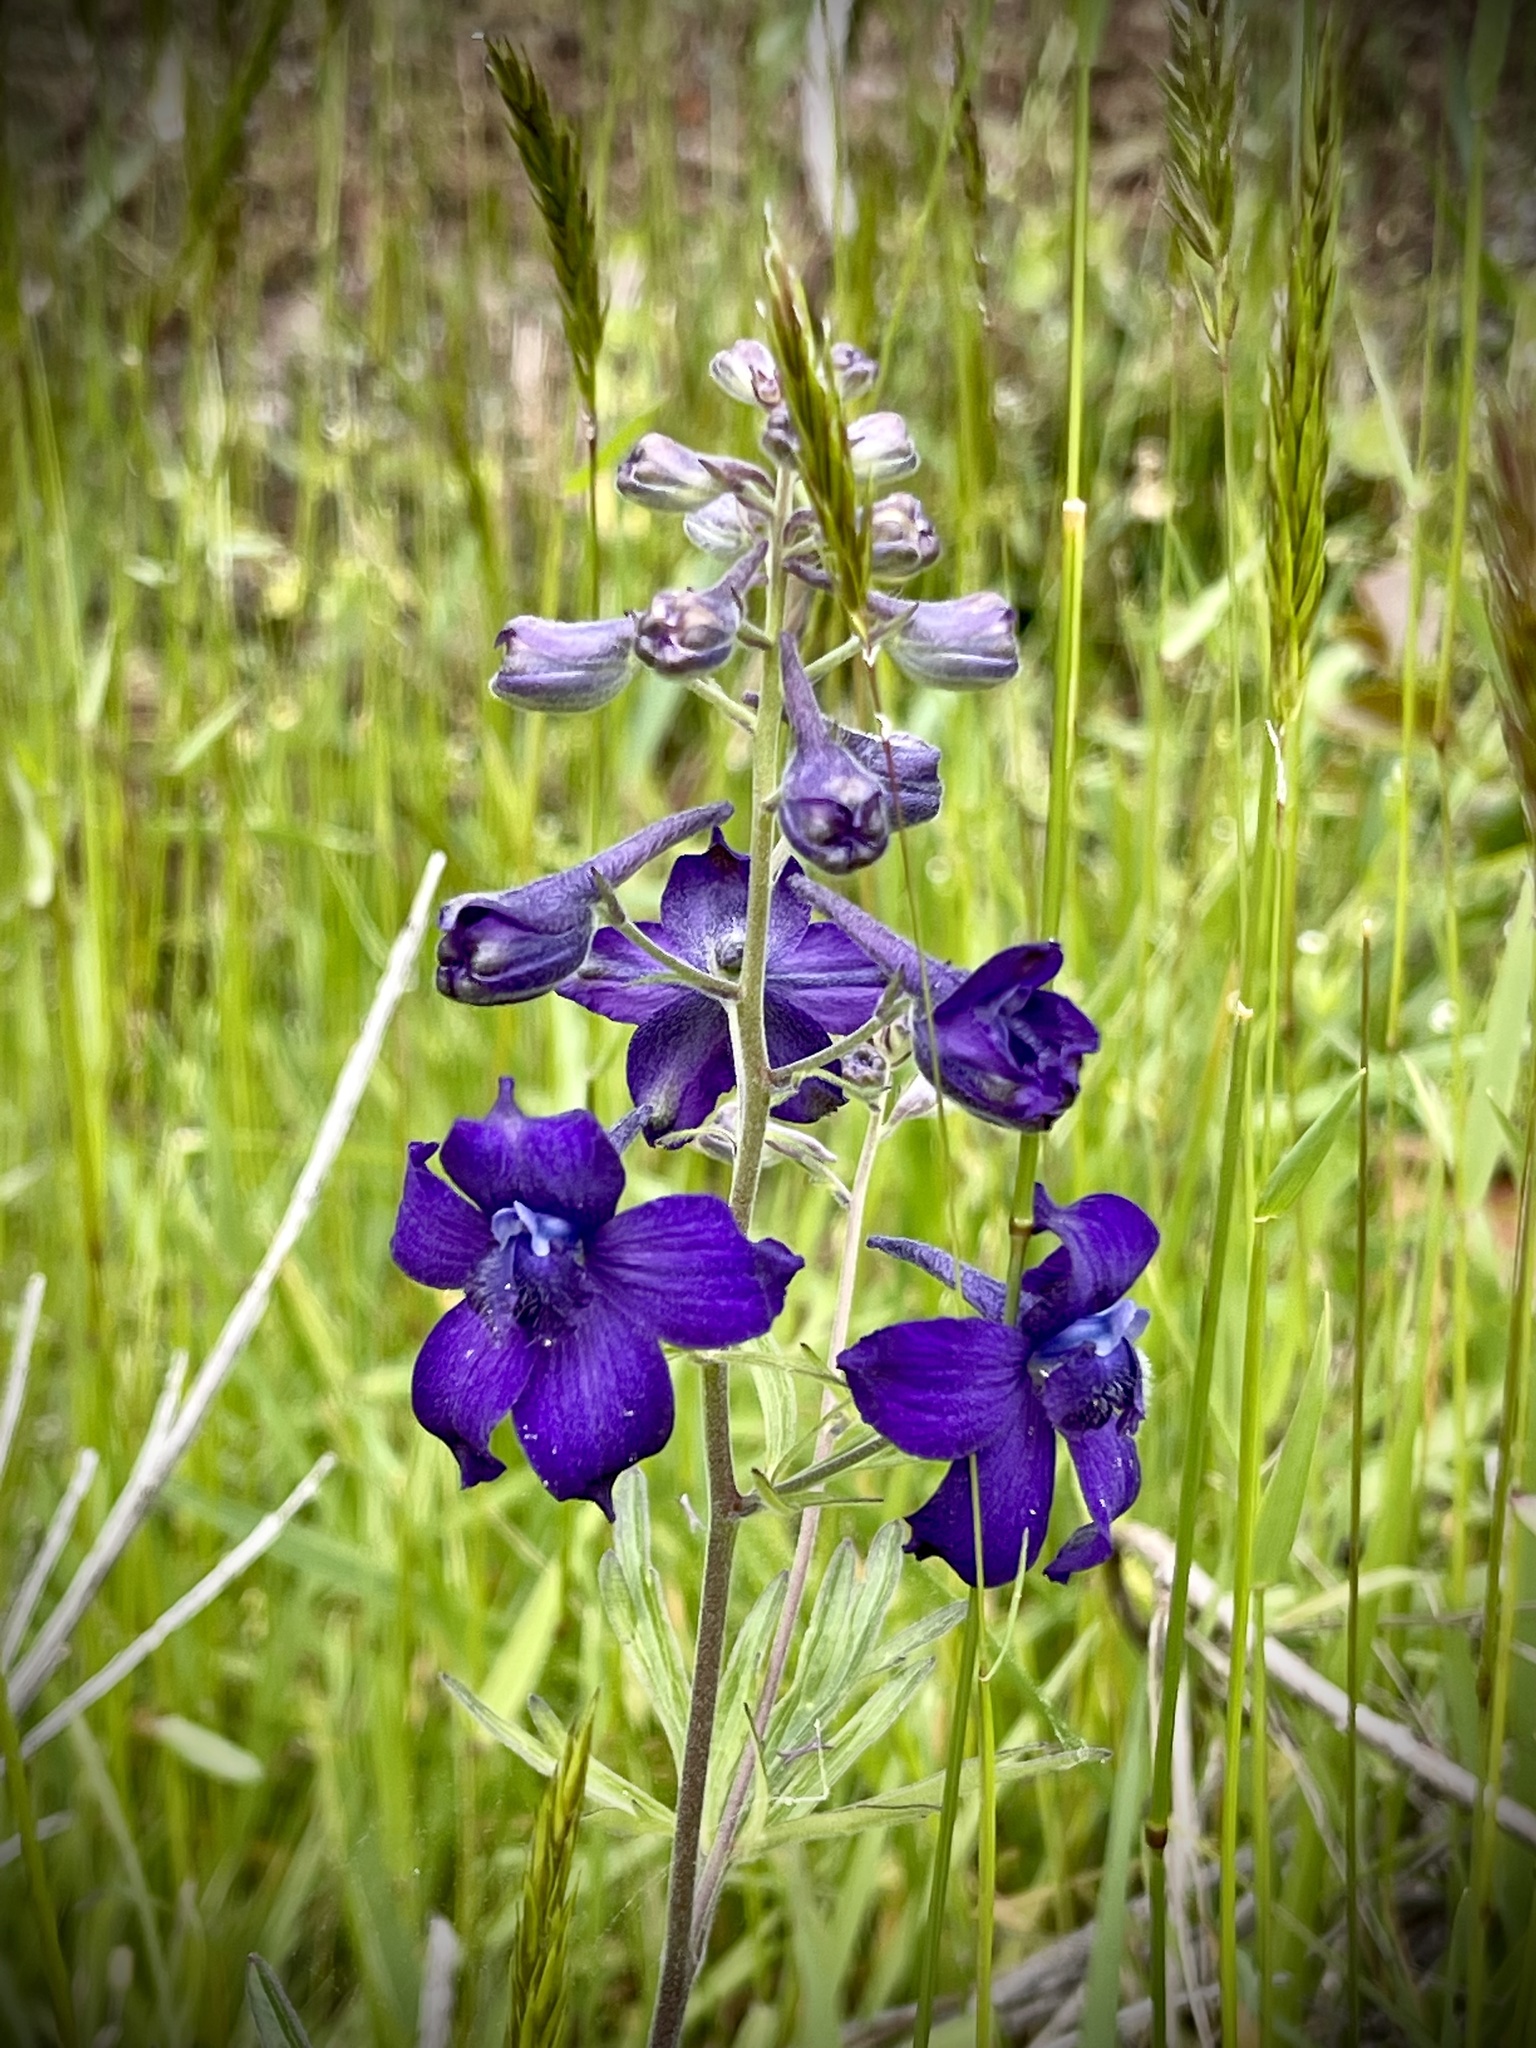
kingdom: Plantae
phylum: Tracheophyta
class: Magnoliopsida
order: Ranunculales
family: Ranunculaceae
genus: Delphinium
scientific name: Delphinium menziesii
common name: Menzies's larkspur
